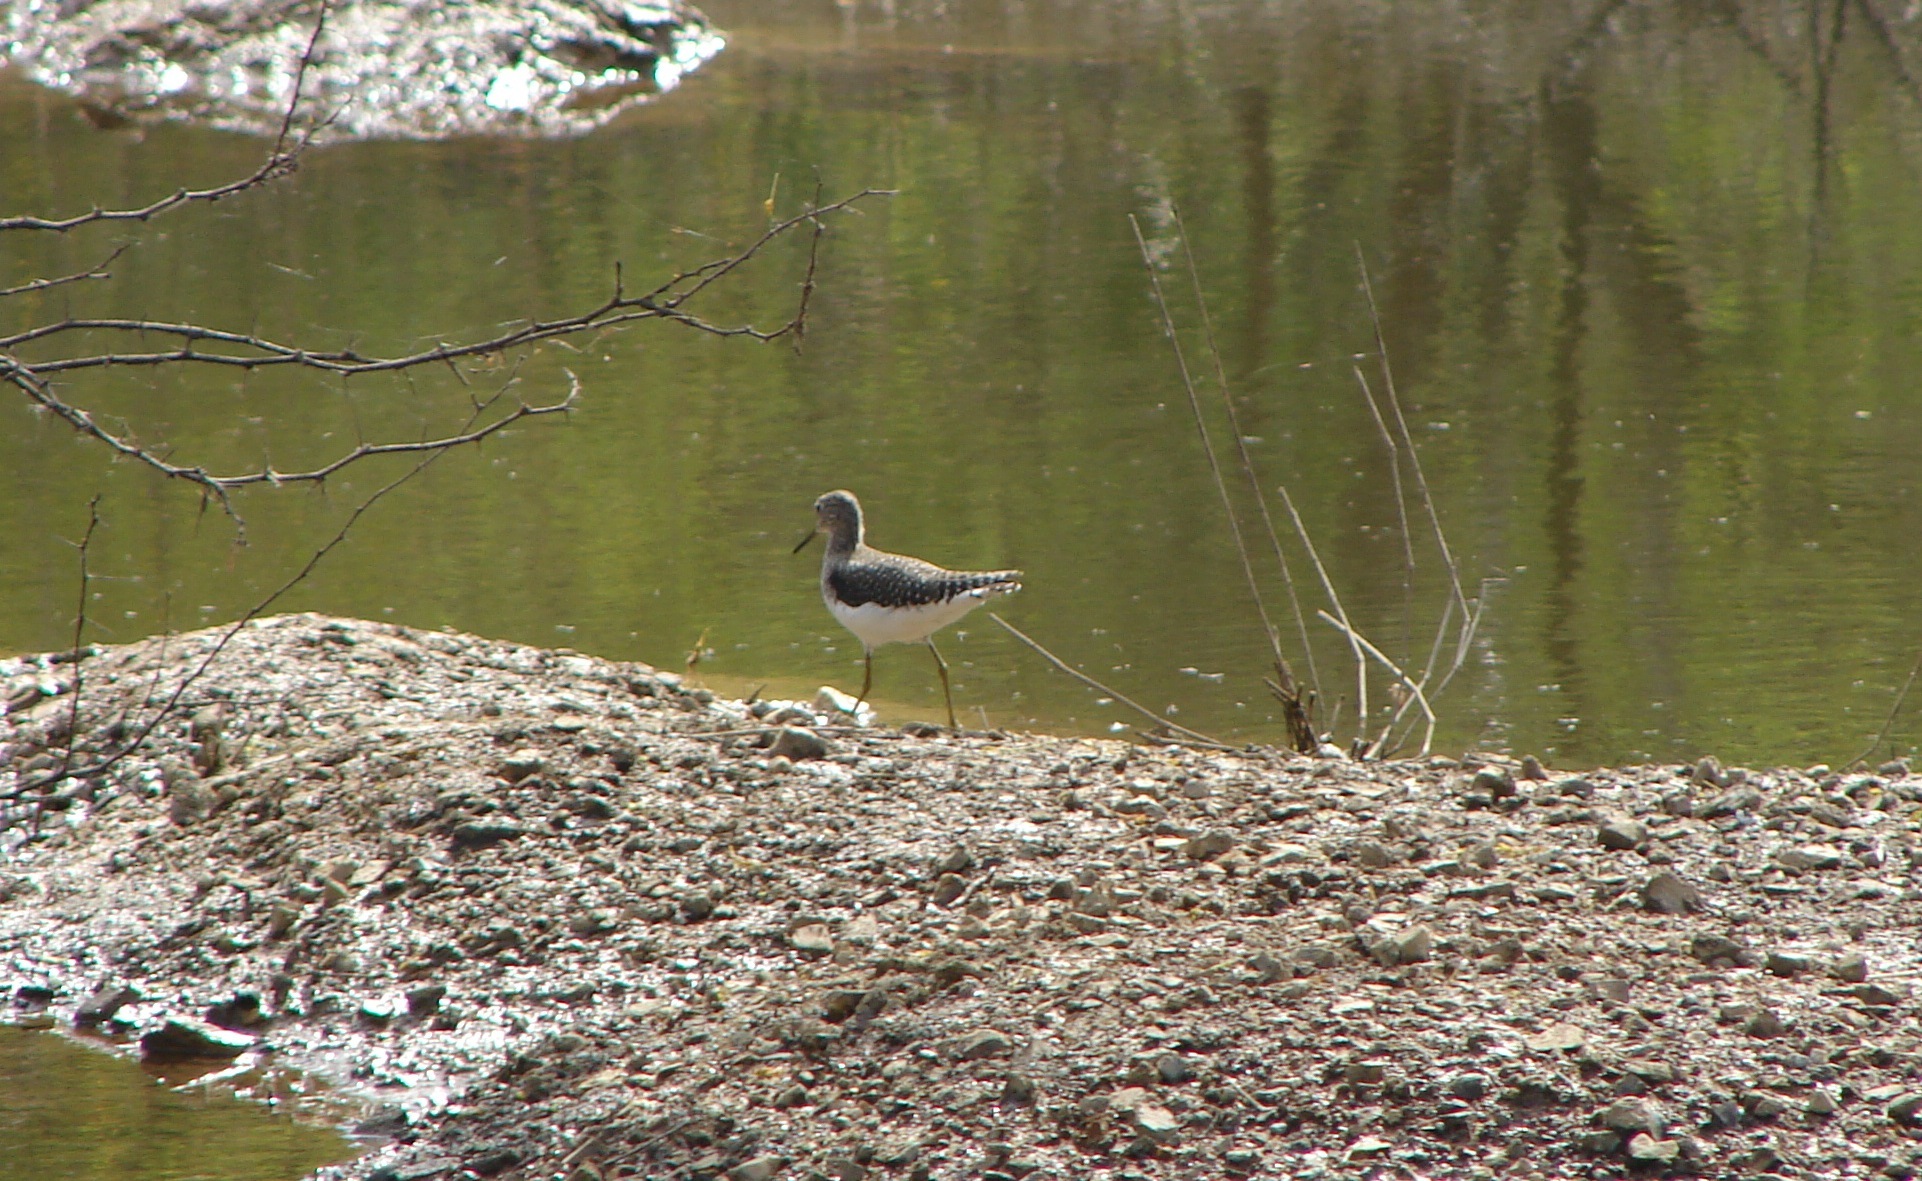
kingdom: Animalia
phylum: Chordata
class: Aves
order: Charadriiformes
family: Scolopacidae
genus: Tringa
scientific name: Tringa solitaria
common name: Solitary sandpiper
